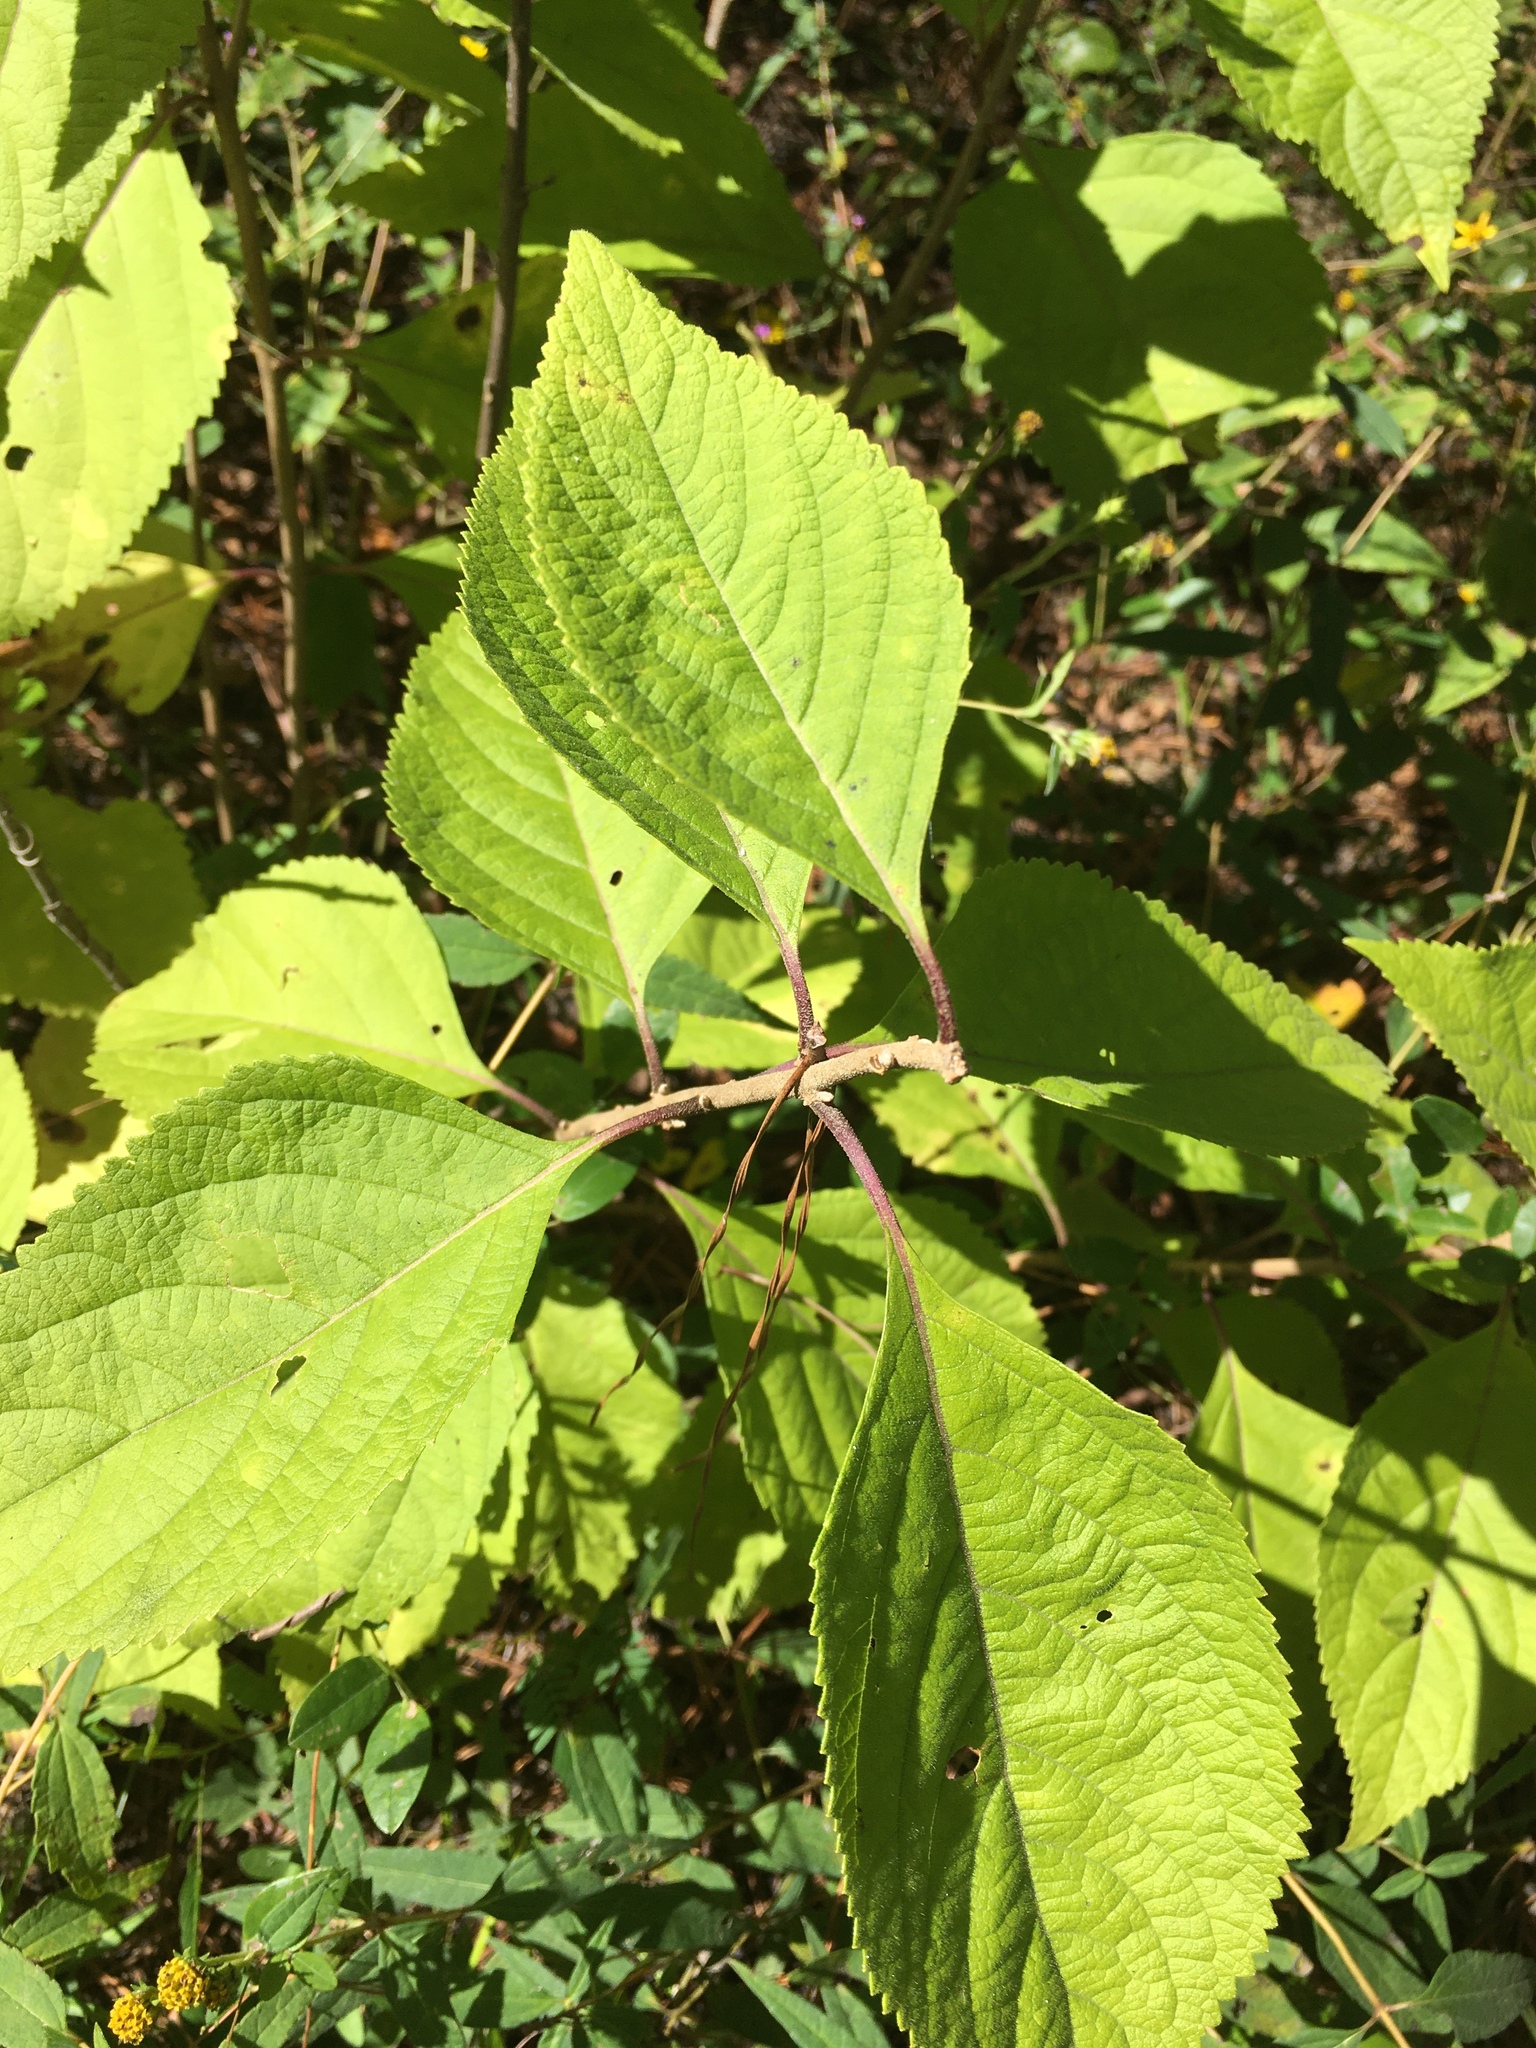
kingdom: Plantae
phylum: Tracheophyta
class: Magnoliopsida
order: Lamiales
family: Lamiaceae
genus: Callicarpa
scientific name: Callicarpa americana
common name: American beautyberry
